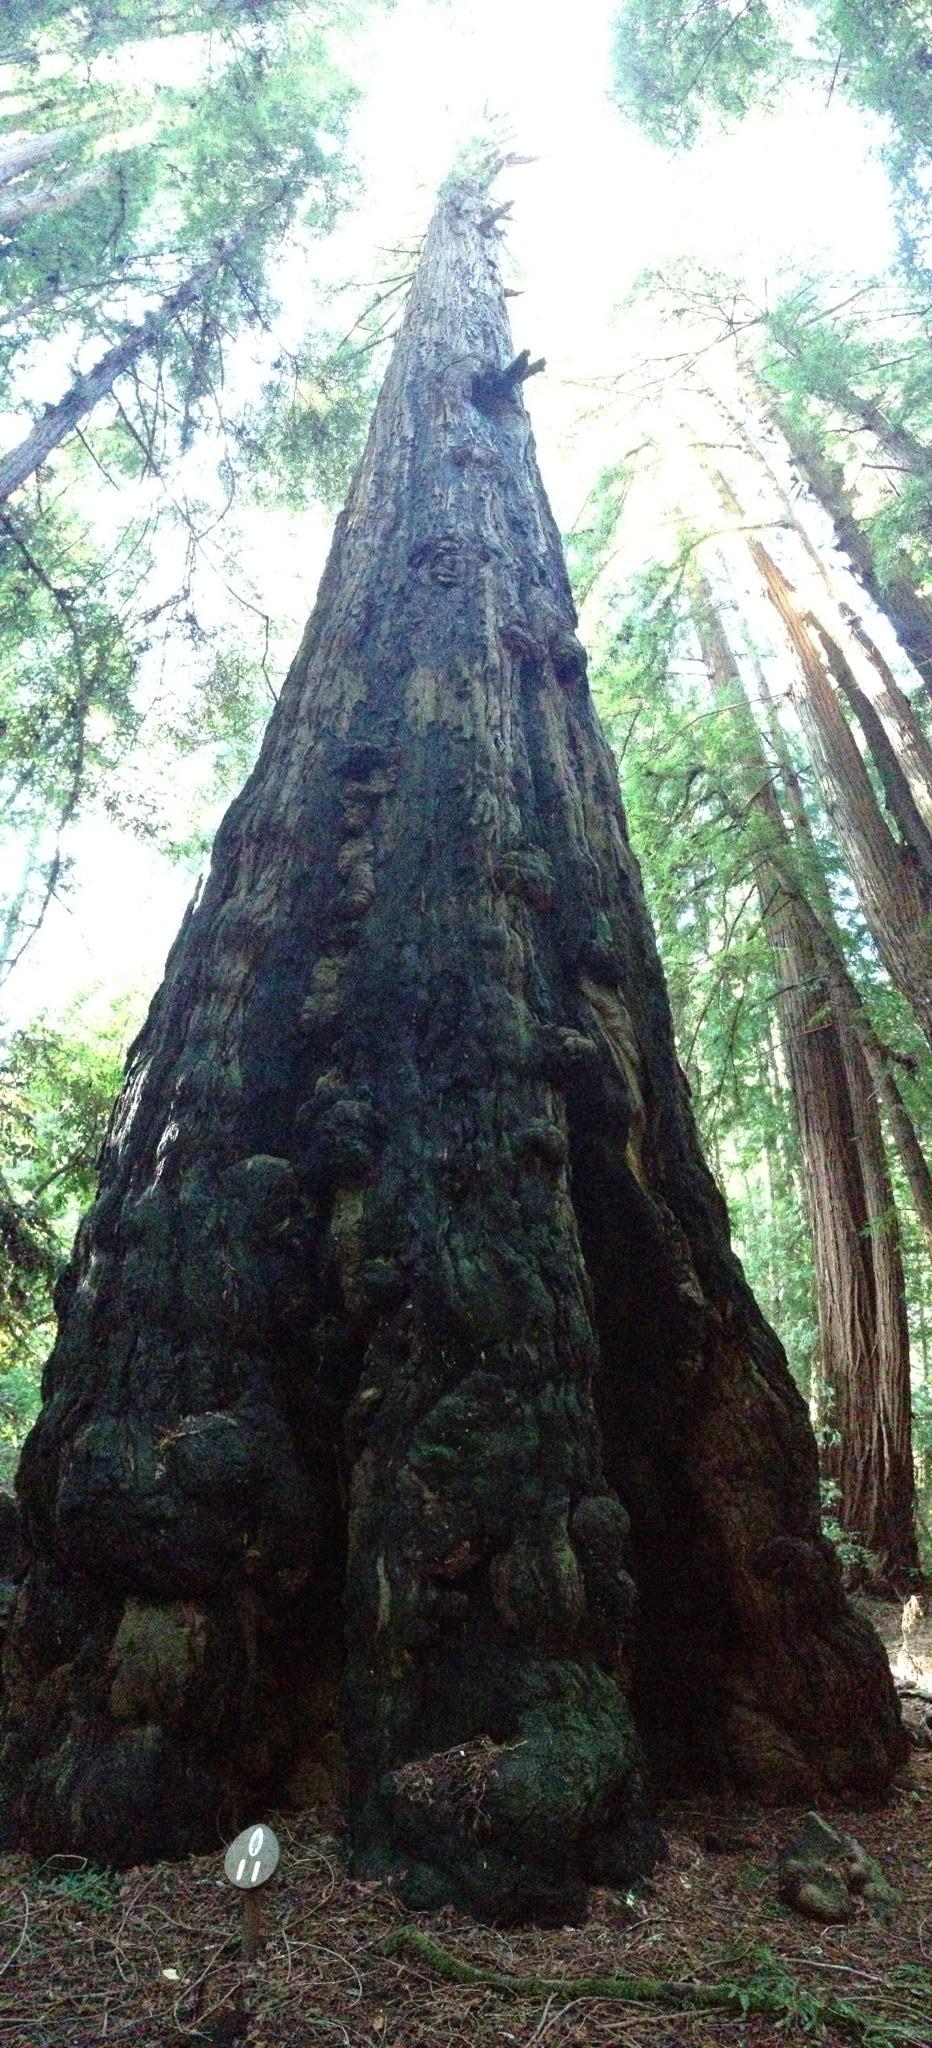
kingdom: Plantae
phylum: Tracheophyta
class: Pinopsida
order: Pinales
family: Cupressaceae
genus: Sequoia
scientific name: Sequoia sempervirens
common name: Coast redwood
